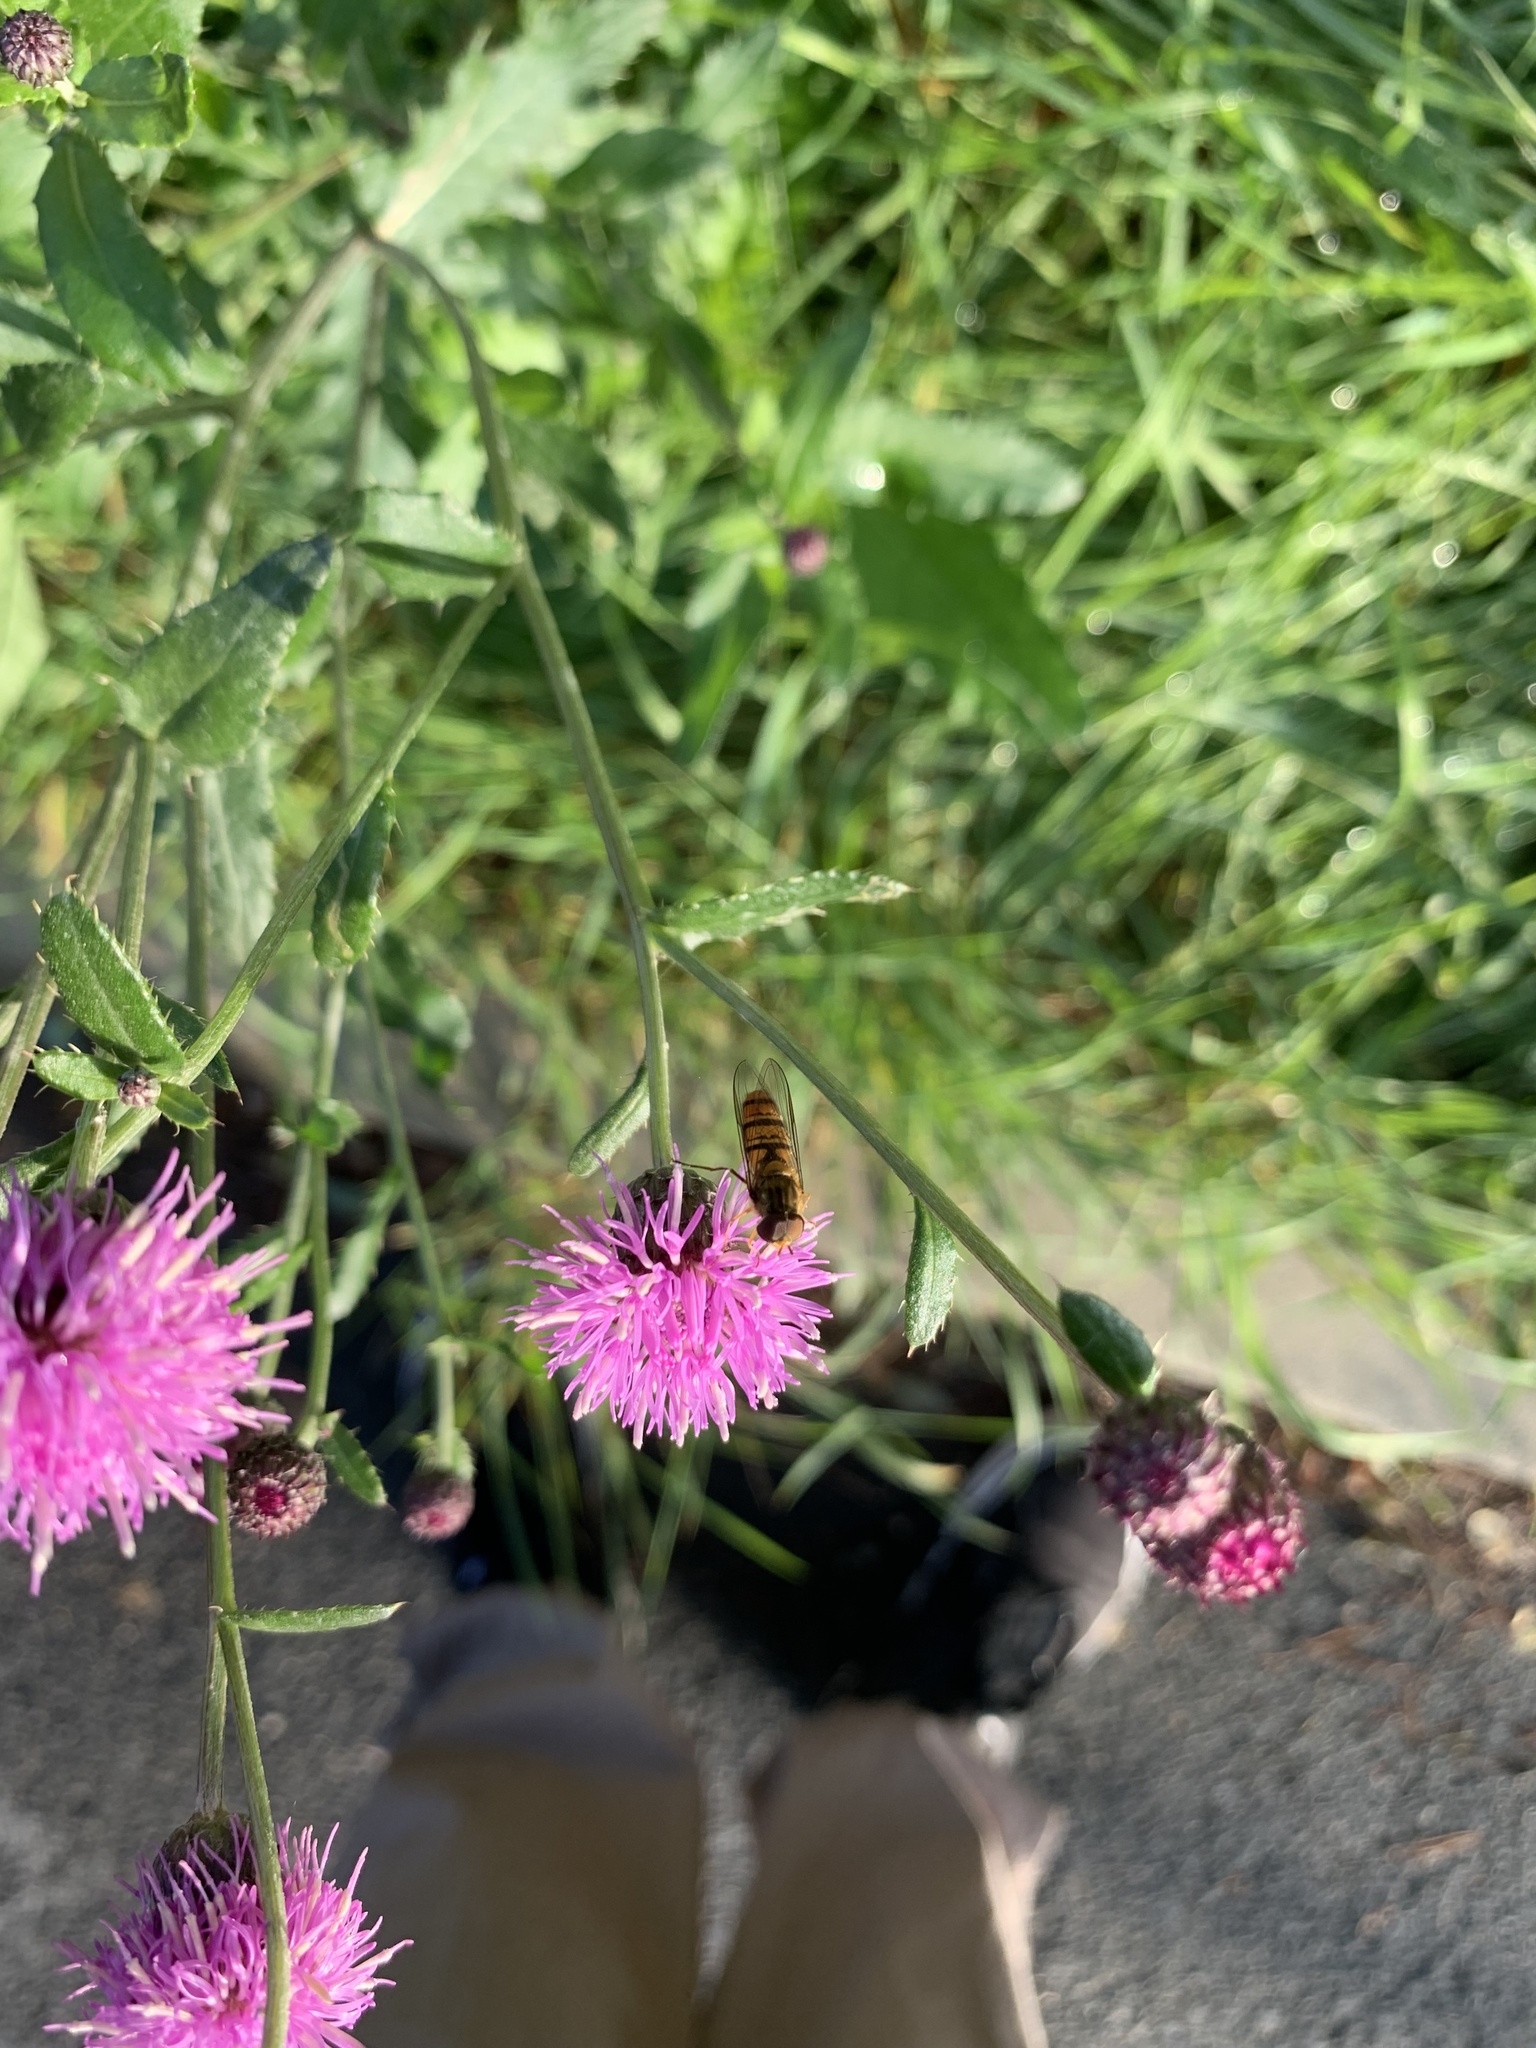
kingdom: Animalia
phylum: Arthropoda
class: Insecta
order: Diptera
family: Syrphidae
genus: Episyrphus
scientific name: Episyrphus balteatus
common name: Marmalade hoverfly
